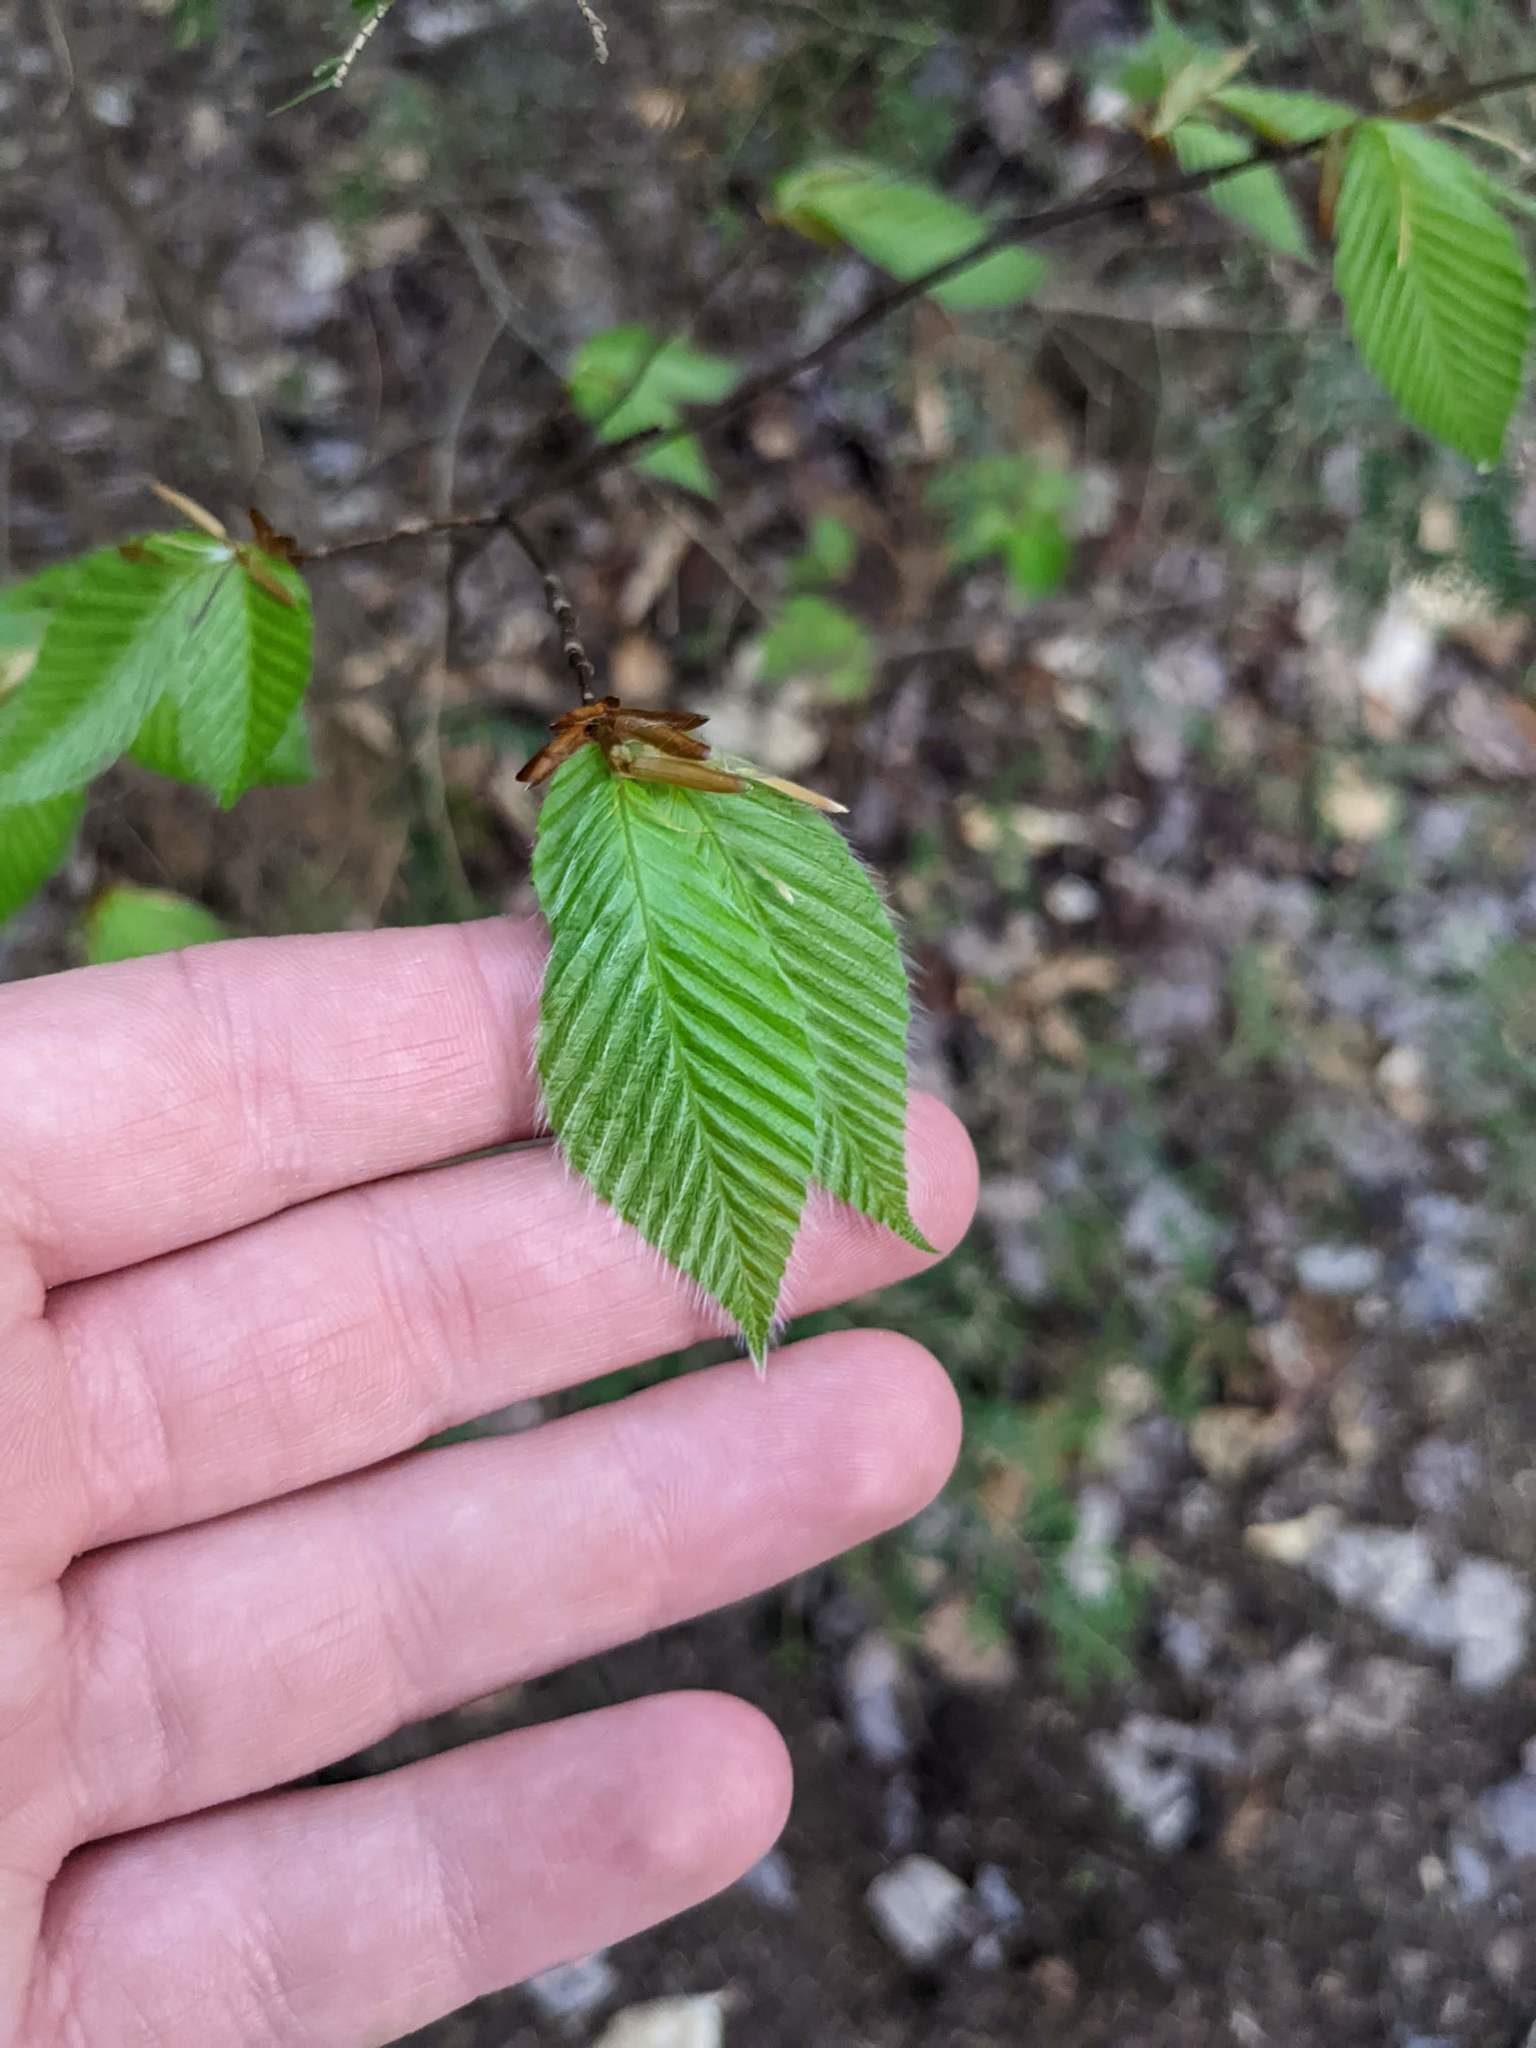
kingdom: Plantae
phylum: Tracheophyta
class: Magnoliopsida
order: Fagales
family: Fagaceae
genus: Fagus
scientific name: Fagus grandifolia
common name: American beech
